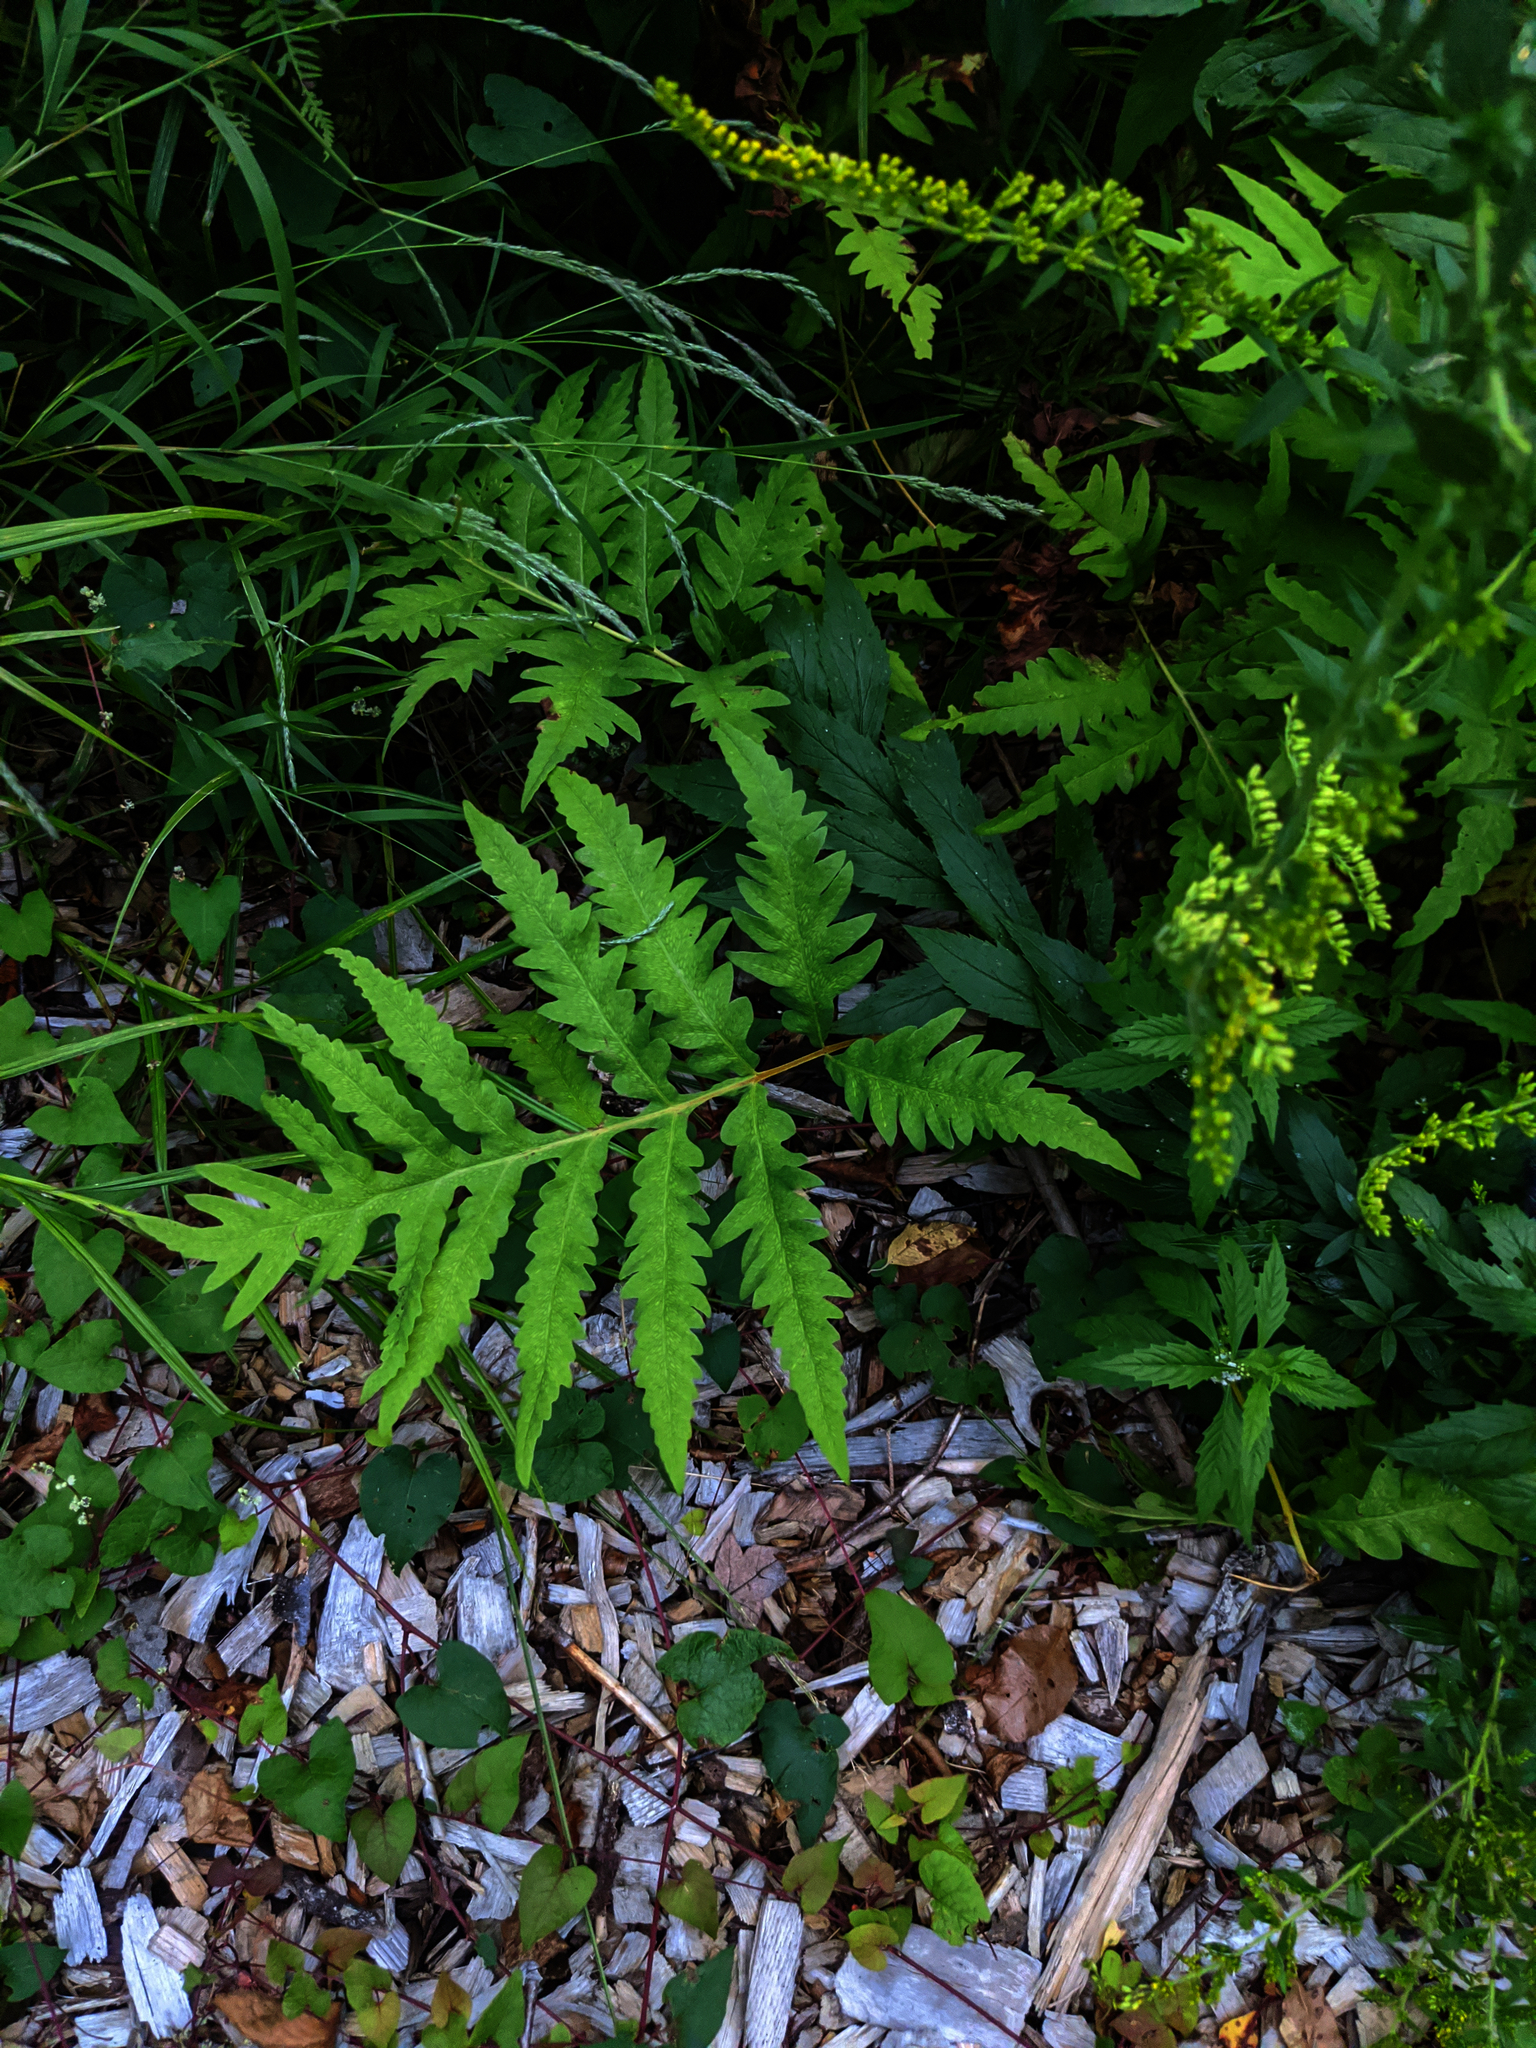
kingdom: Plantae
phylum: Tracheophyta
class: Polypodiopsida
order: Polypodiales
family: Onocleaceae
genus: Onoclea
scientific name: Onoclea sensibilis
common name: Sensitive fern
